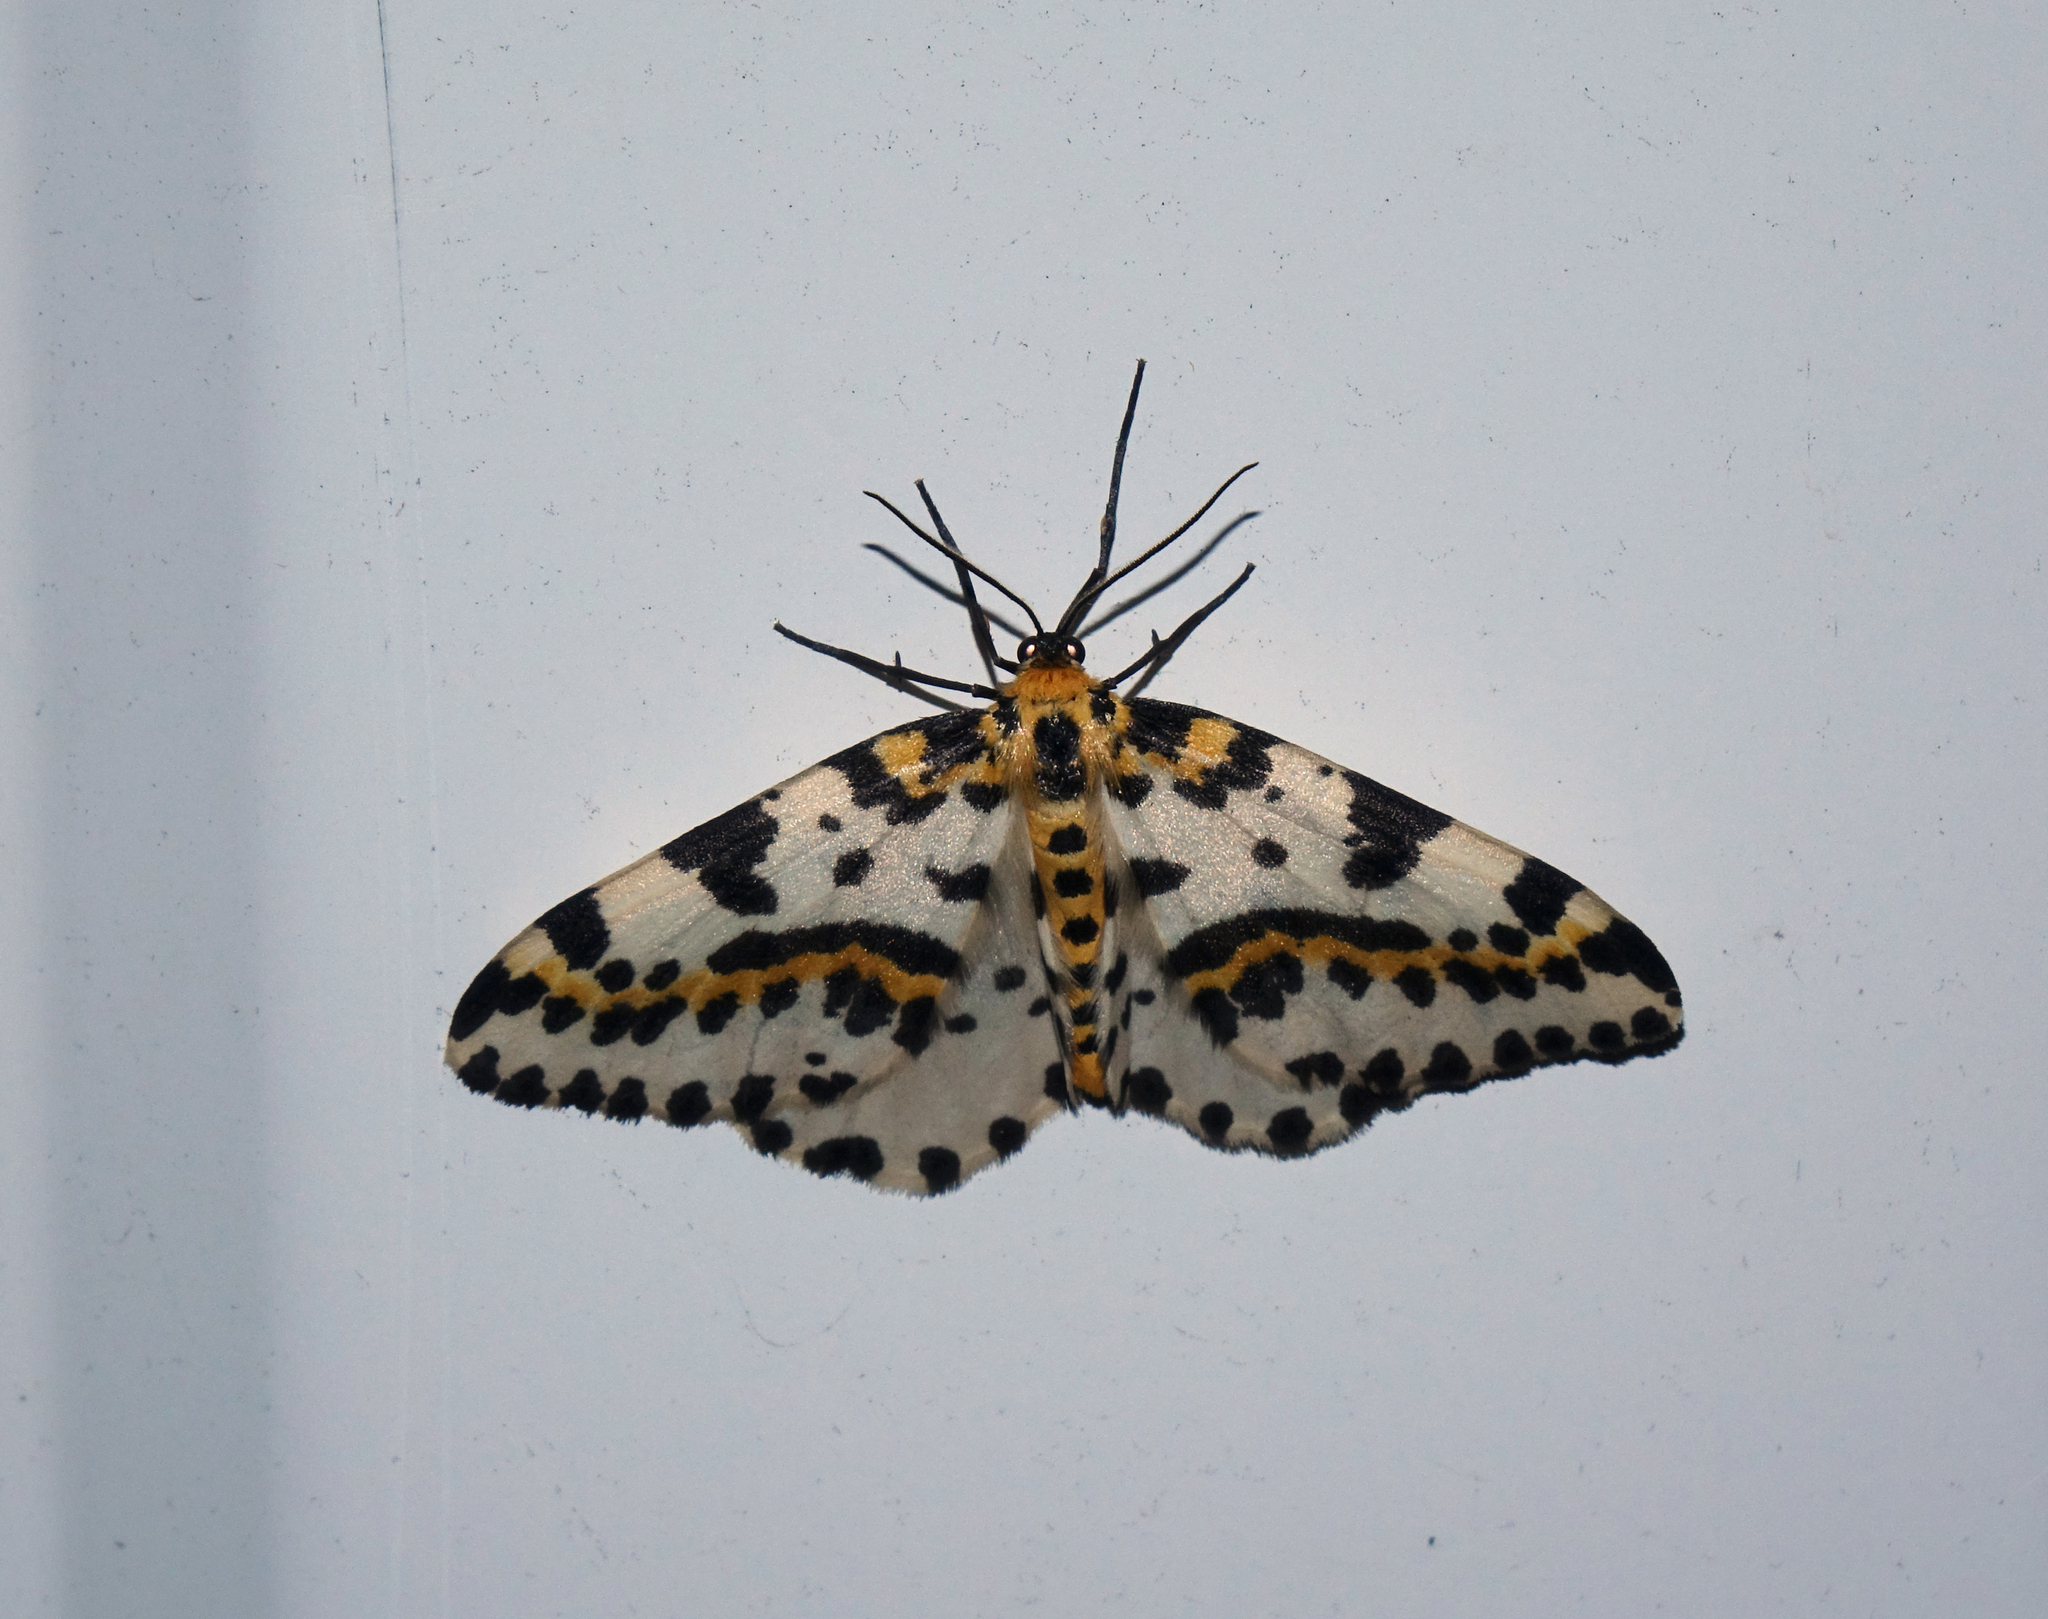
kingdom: Animalia
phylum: Arthropoda
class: Insecta
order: Lepidoptera
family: Geometridae
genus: Abraxas
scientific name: Abraxas grossulariata
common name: Magpie
